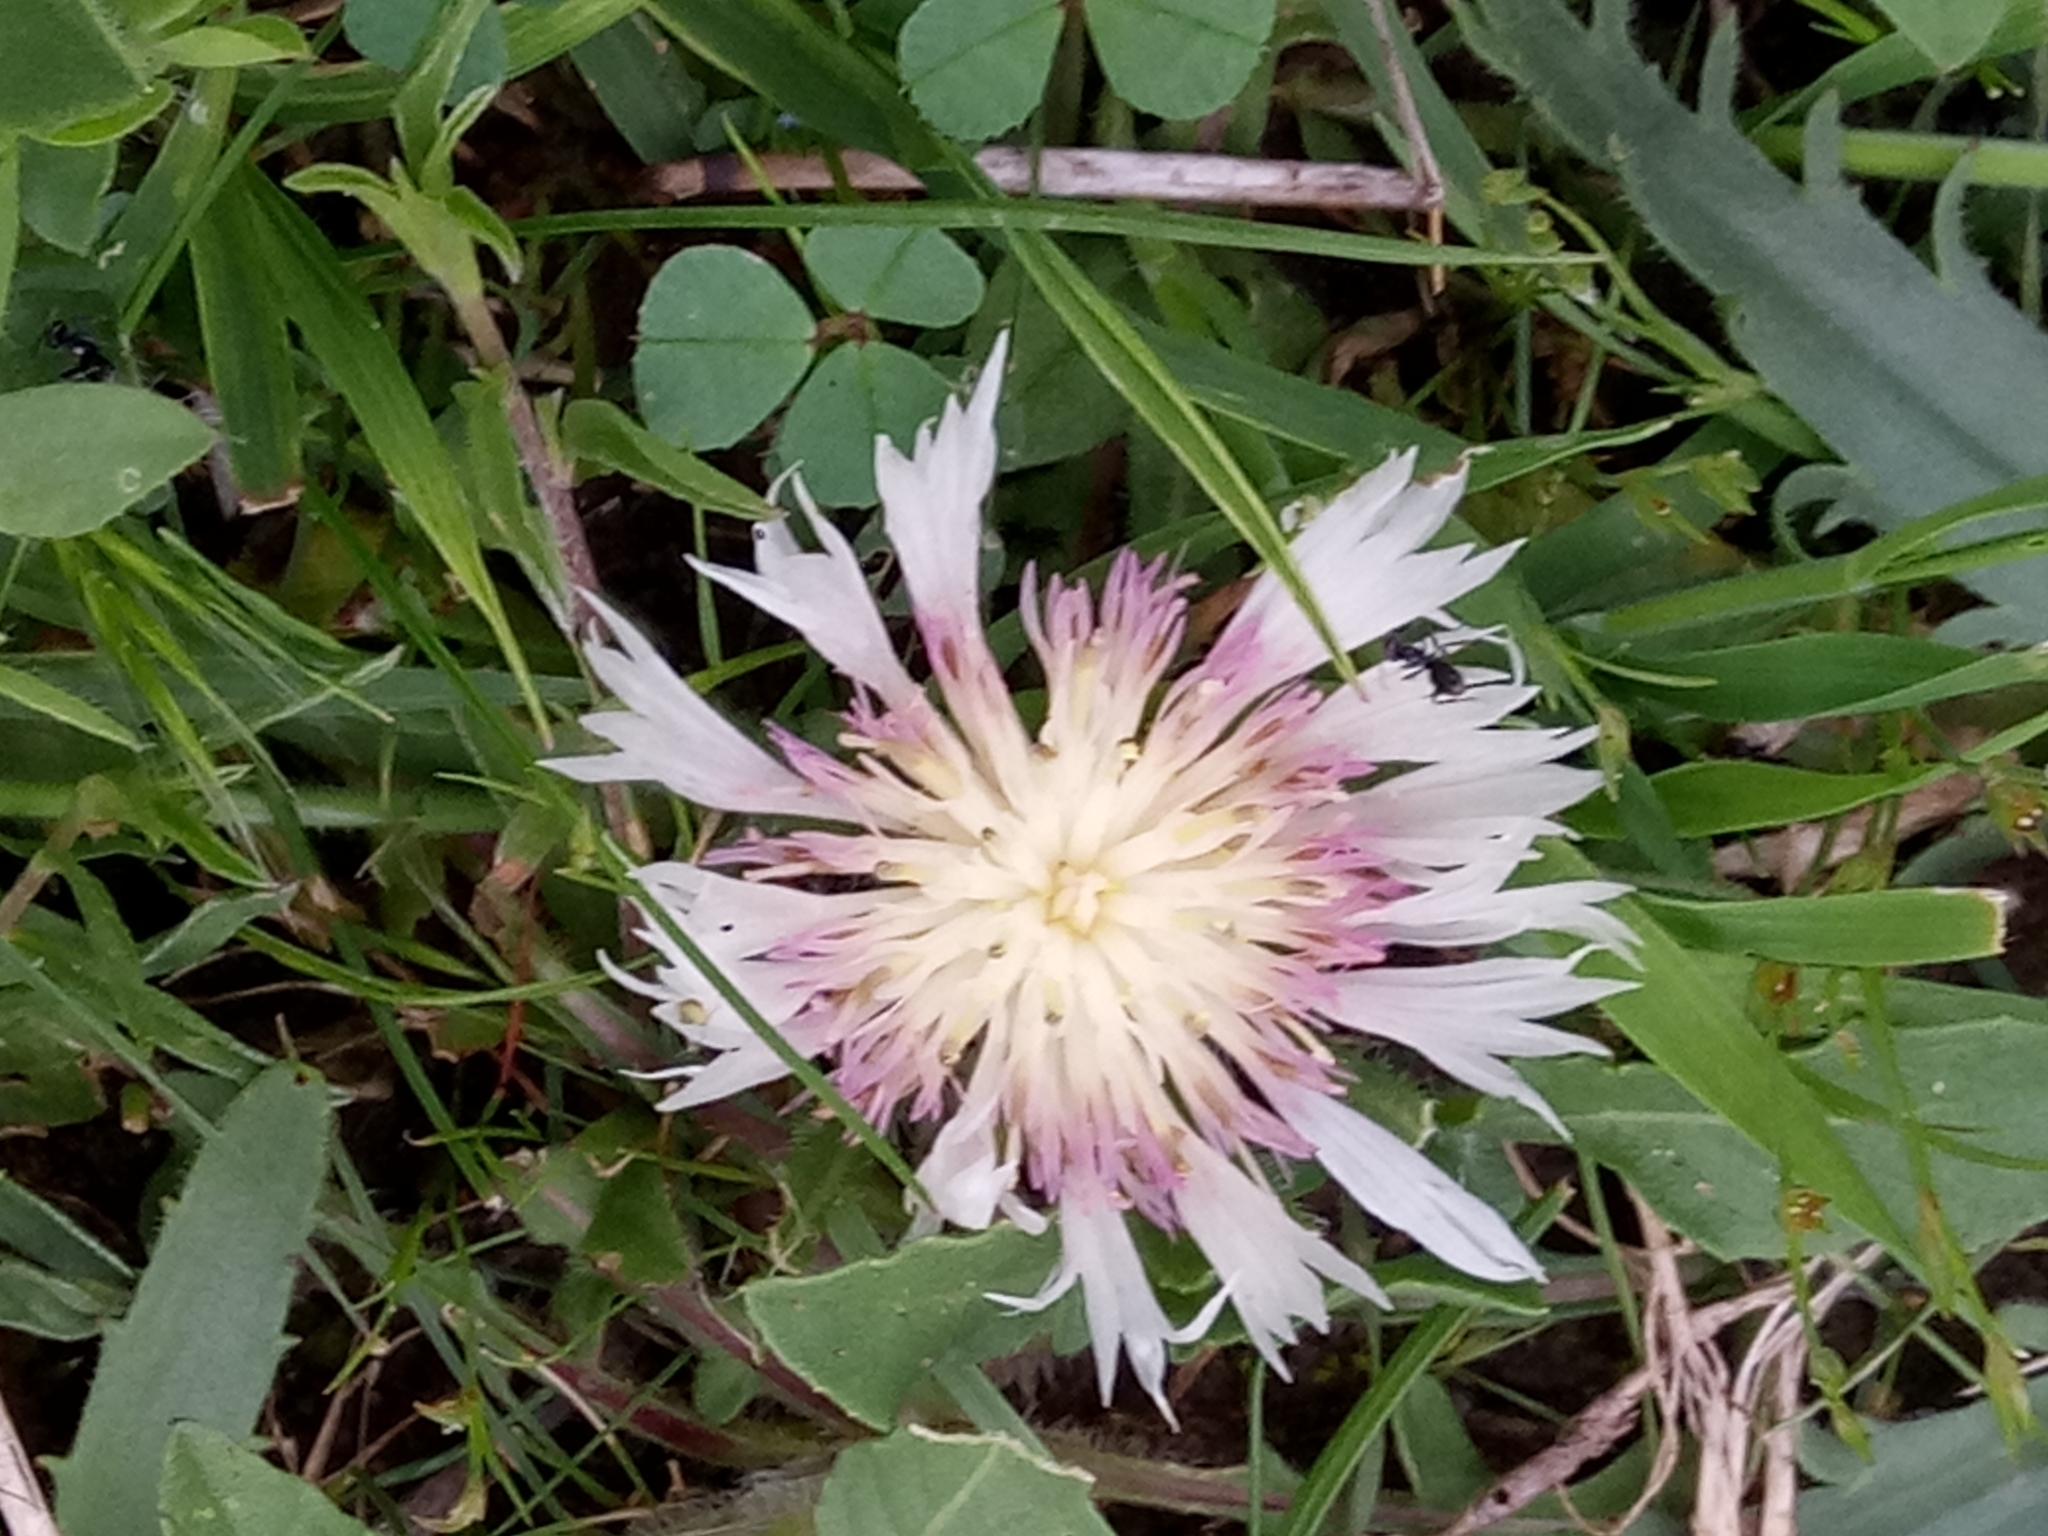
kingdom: Plantae
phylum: Tracheophyta
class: Magnoliopsida
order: Asterales
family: Asteraceae
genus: Centaurea
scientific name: Centaurea pullata
